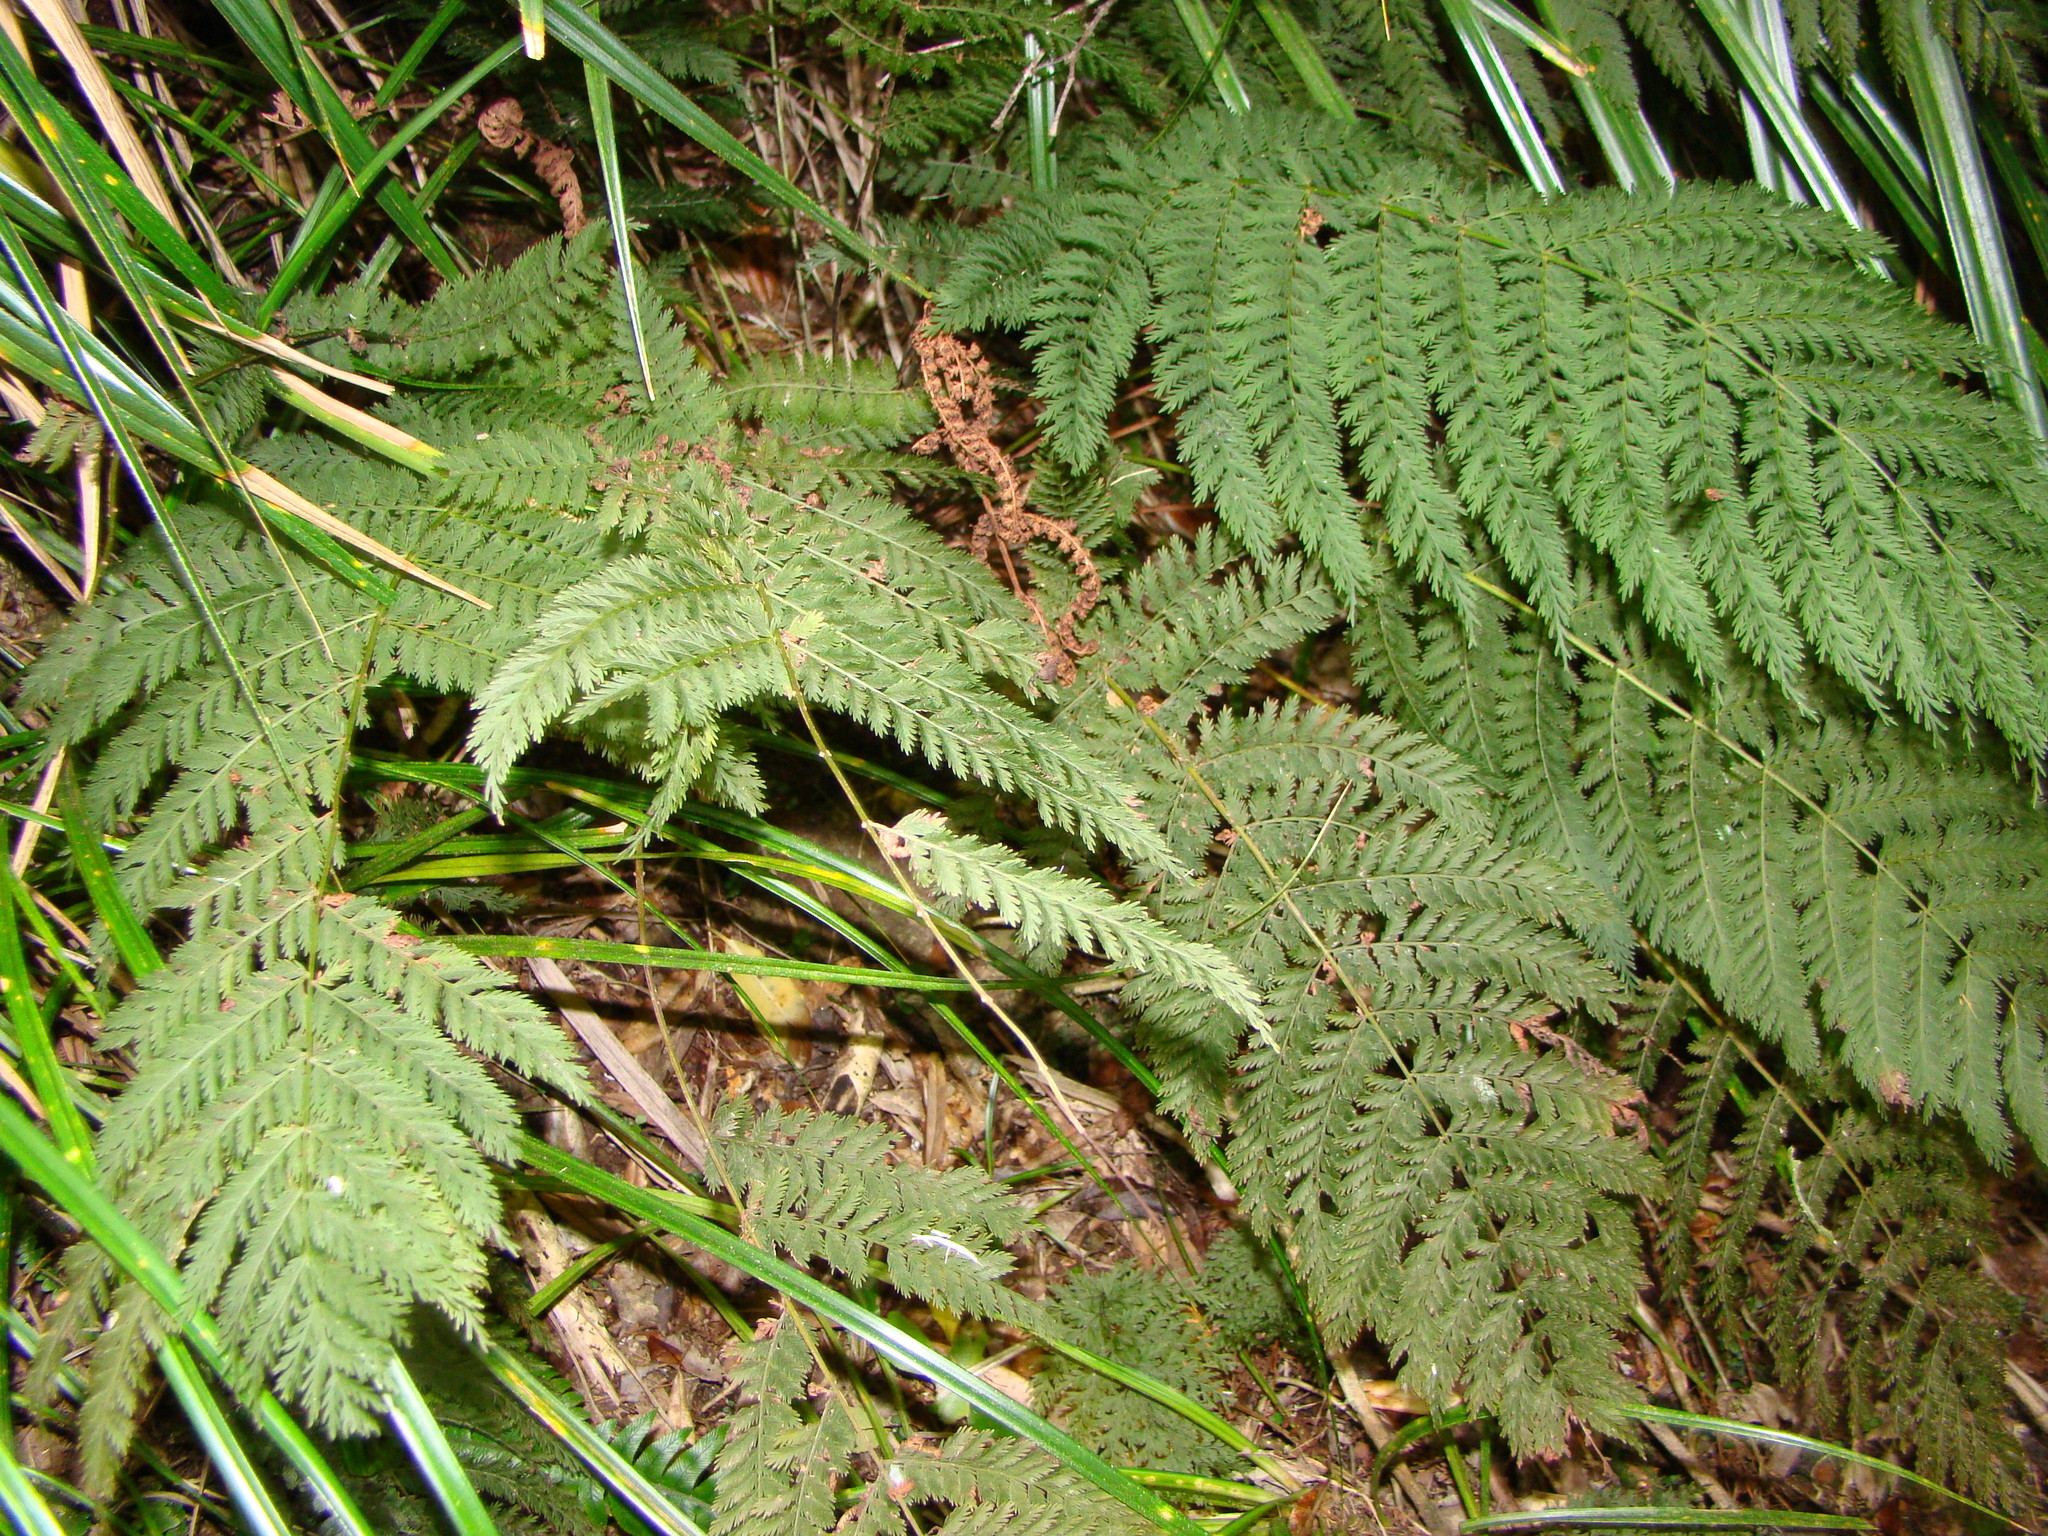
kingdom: Plantae
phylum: Tracheophyta
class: Polypodiopsida
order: Osmundales
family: Osmundaceae
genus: Leptopteris
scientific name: Leptopteris hymenophylloides
